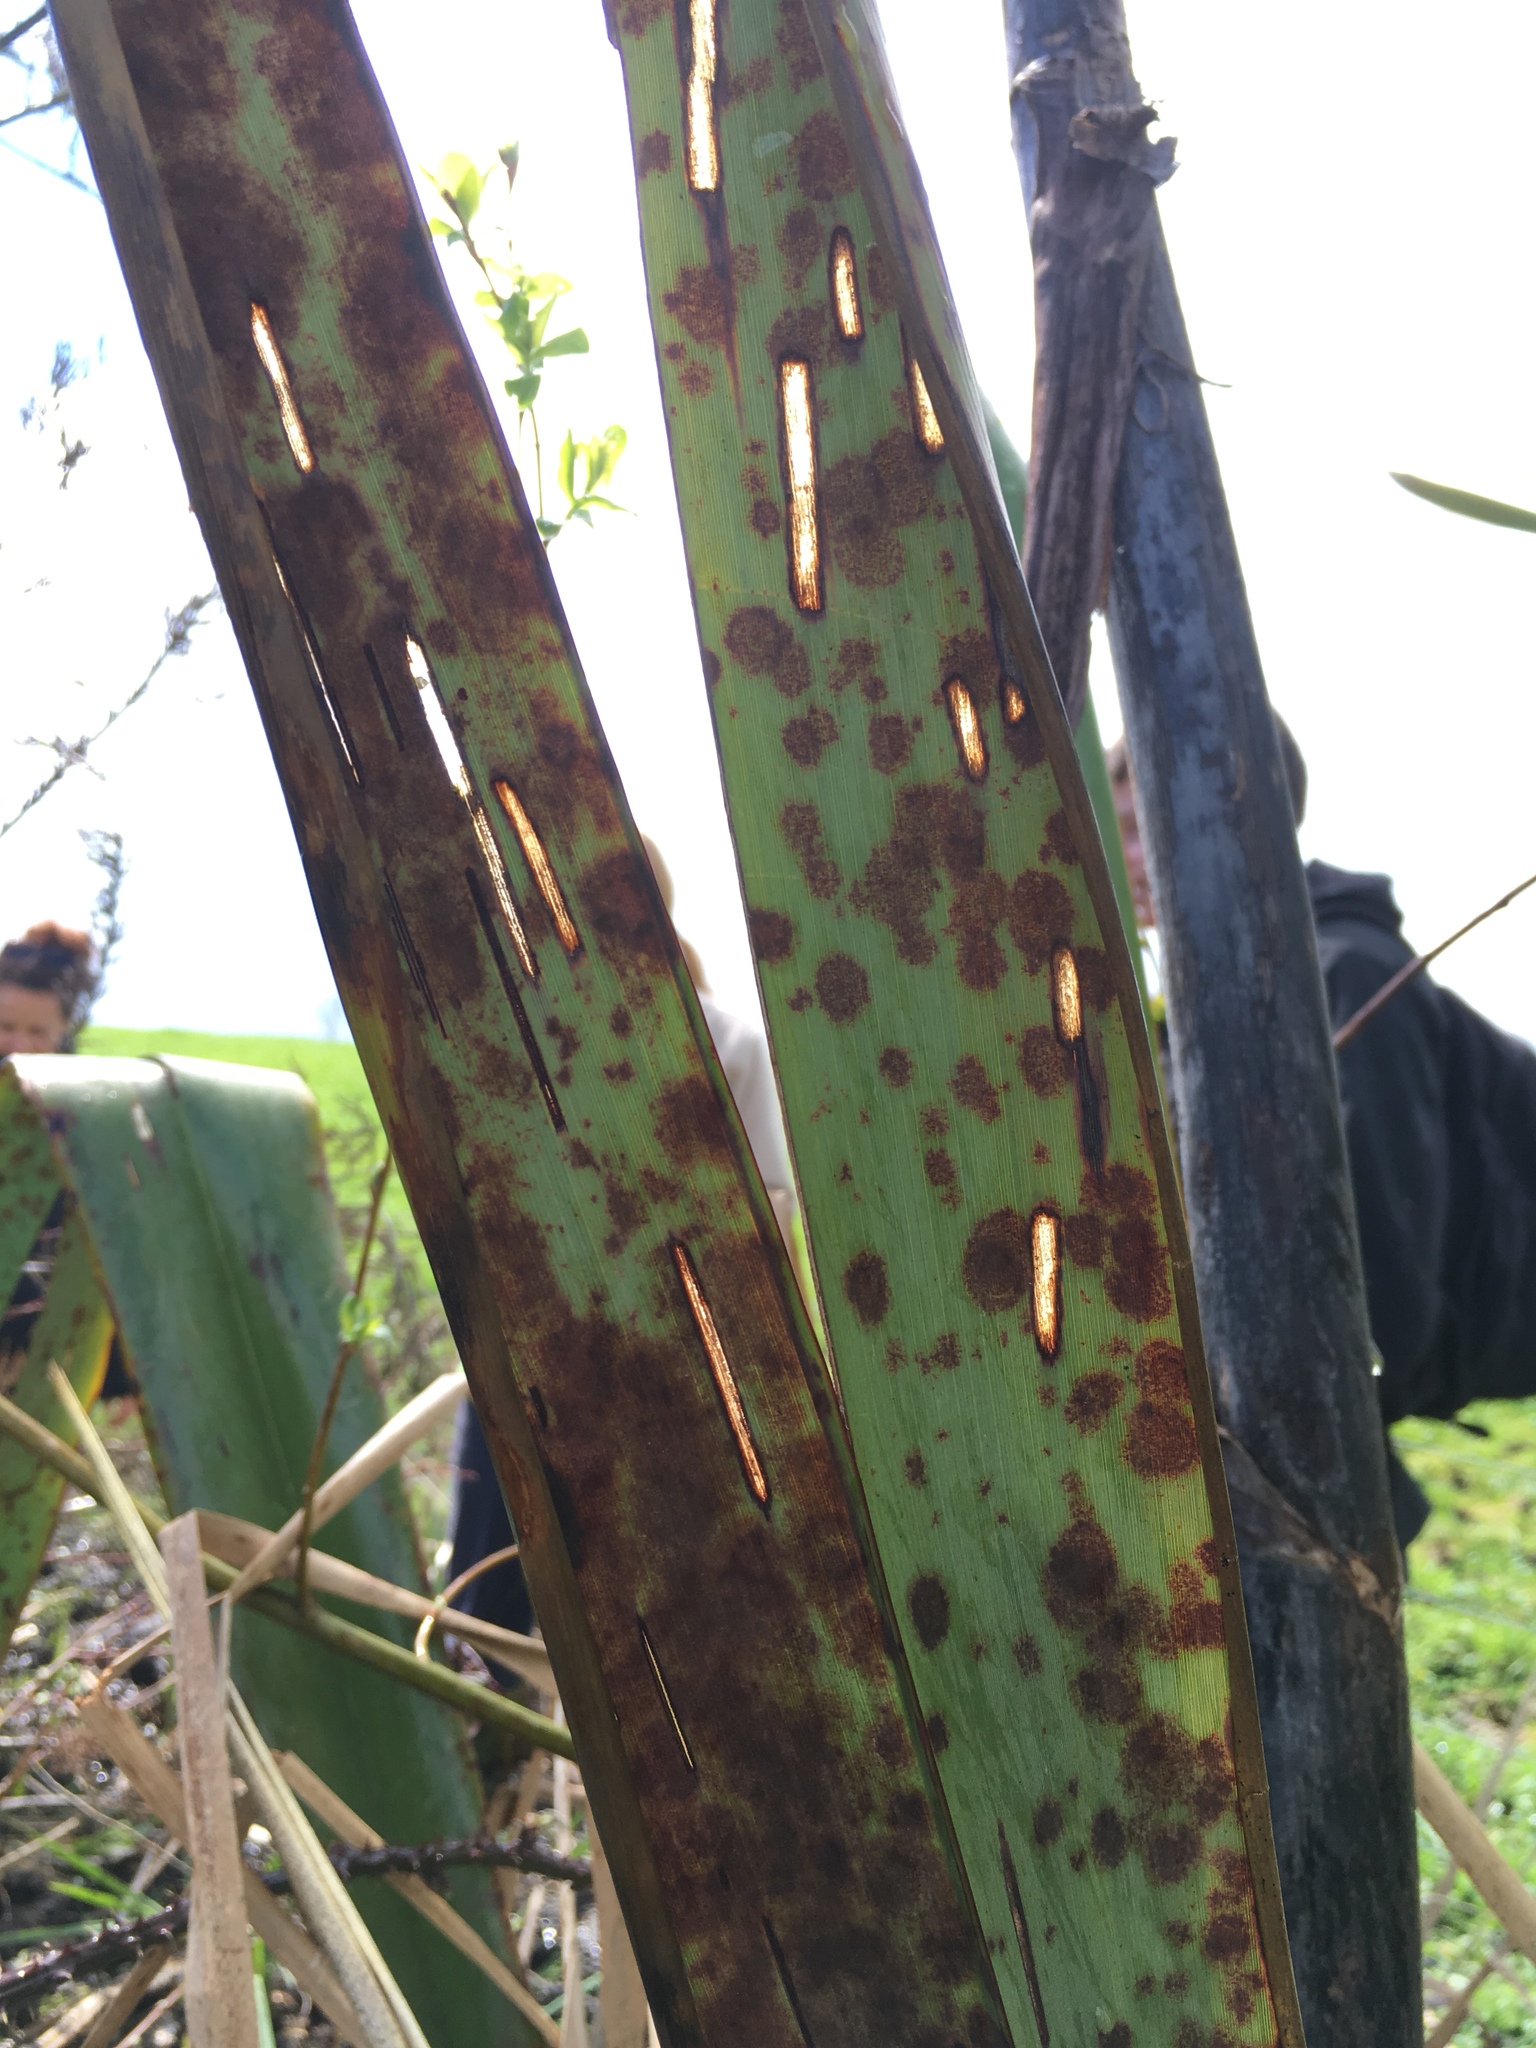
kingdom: Animalia
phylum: Arthropoda
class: Insecta
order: Lepidoptera
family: Geometridae
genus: Orthoclydon
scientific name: Orthoclydon praefectata
